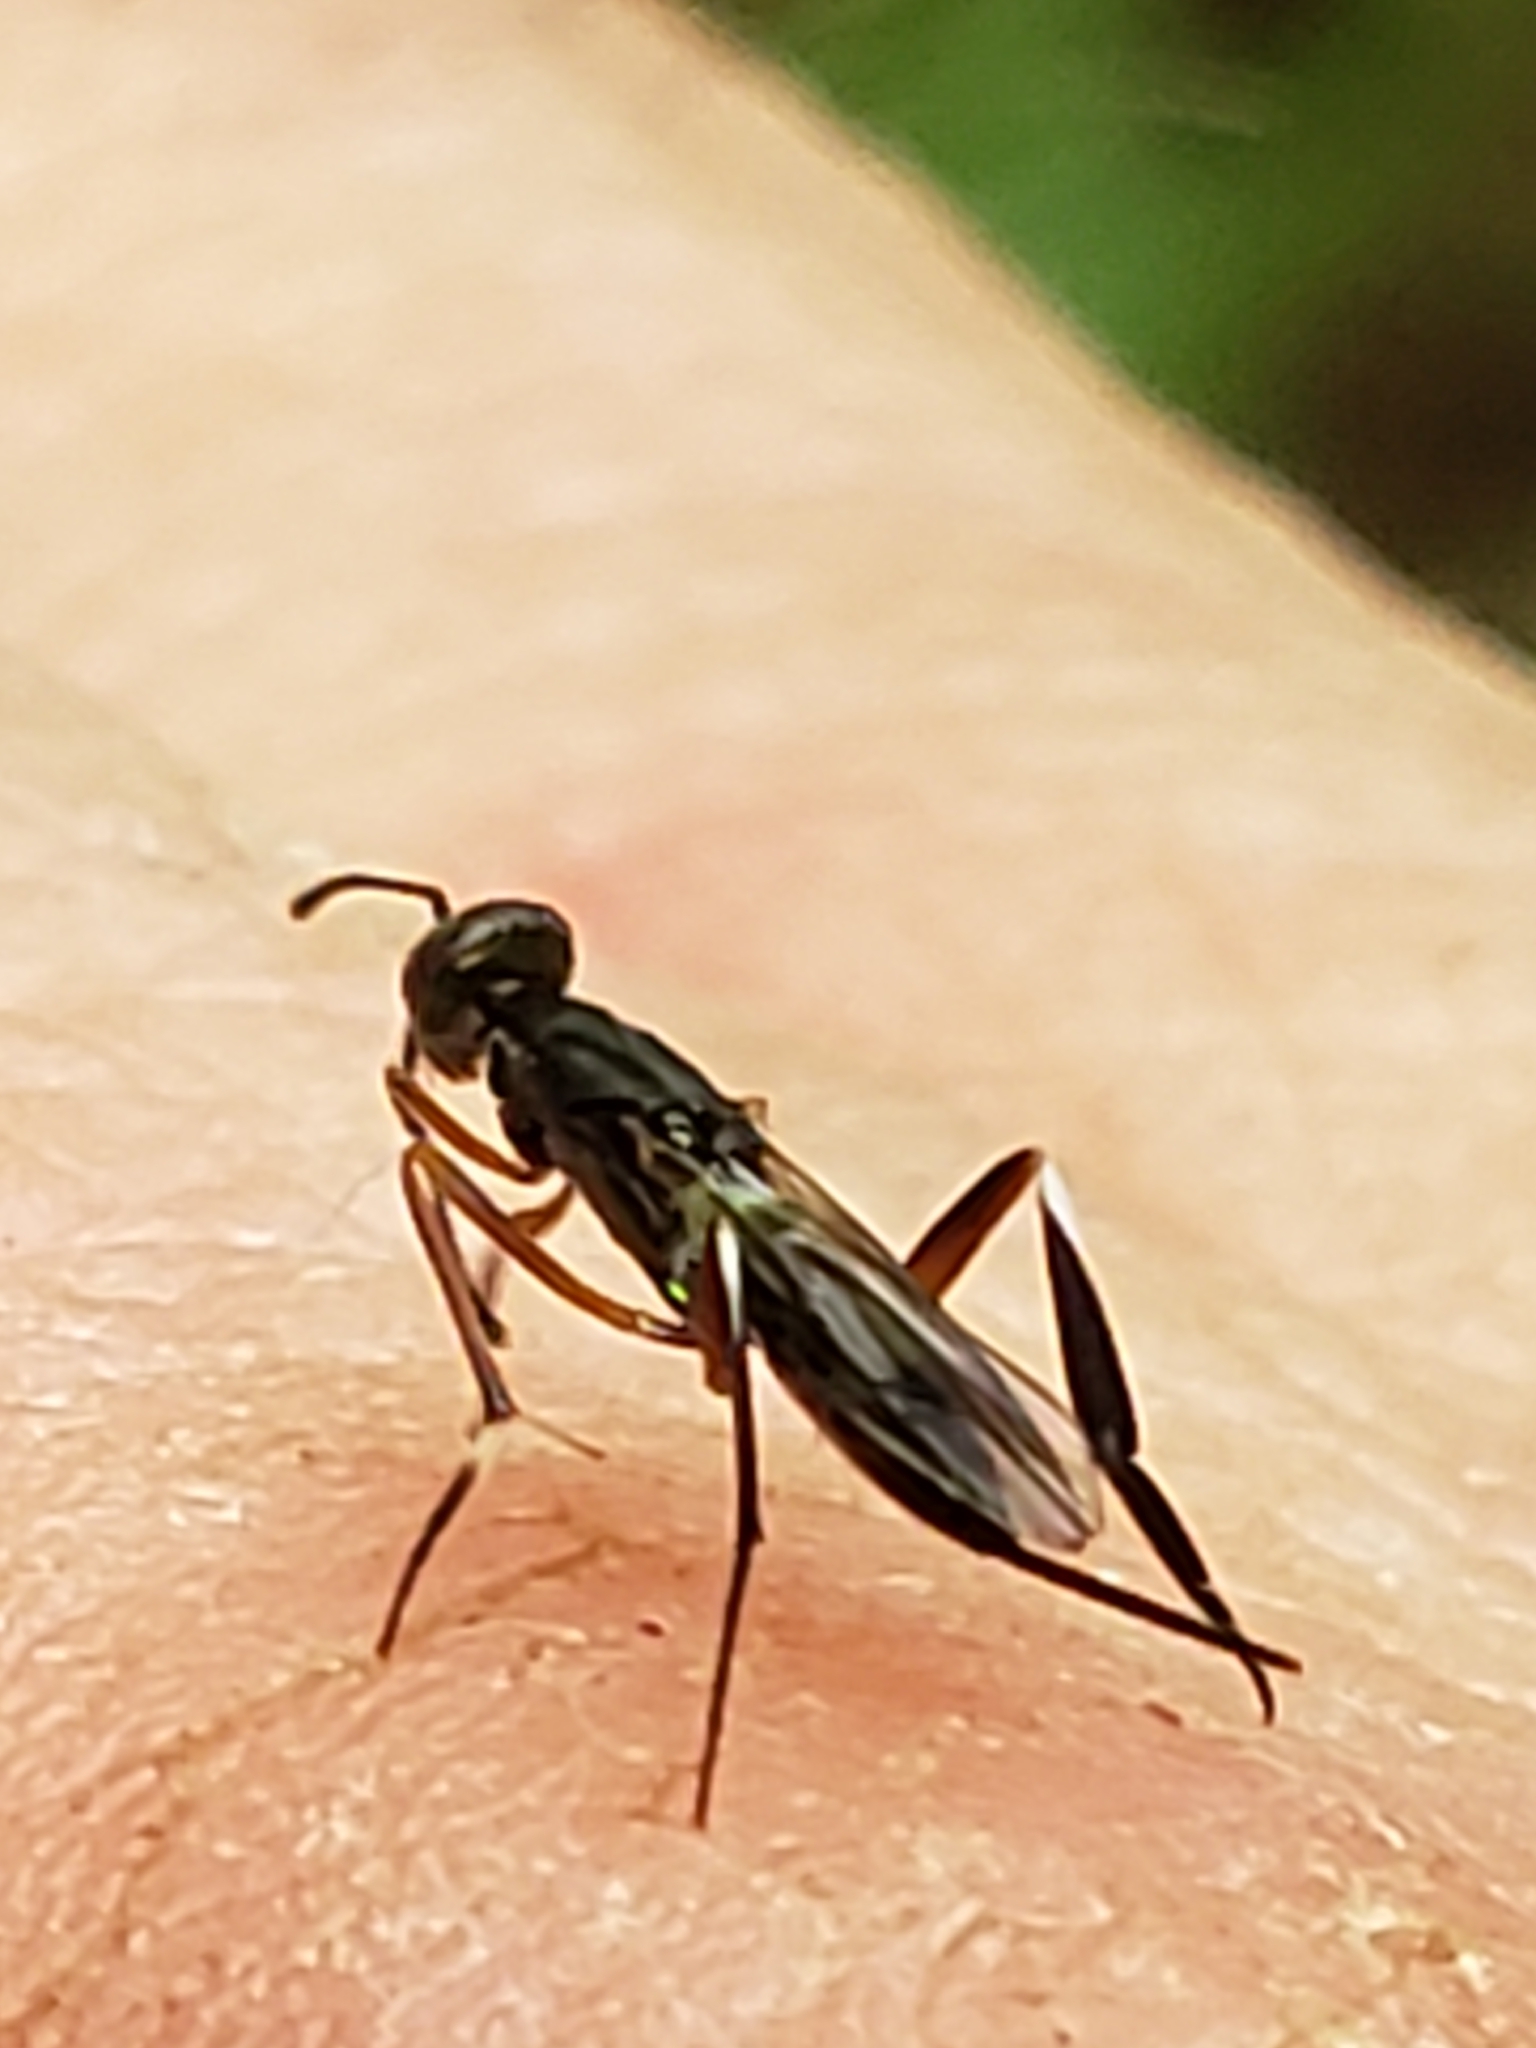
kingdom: Animalia
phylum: Arthropoda
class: Insecta
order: Hymenoptera
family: Eupelmidae
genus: Metapelma
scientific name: Metapelma spectabile
